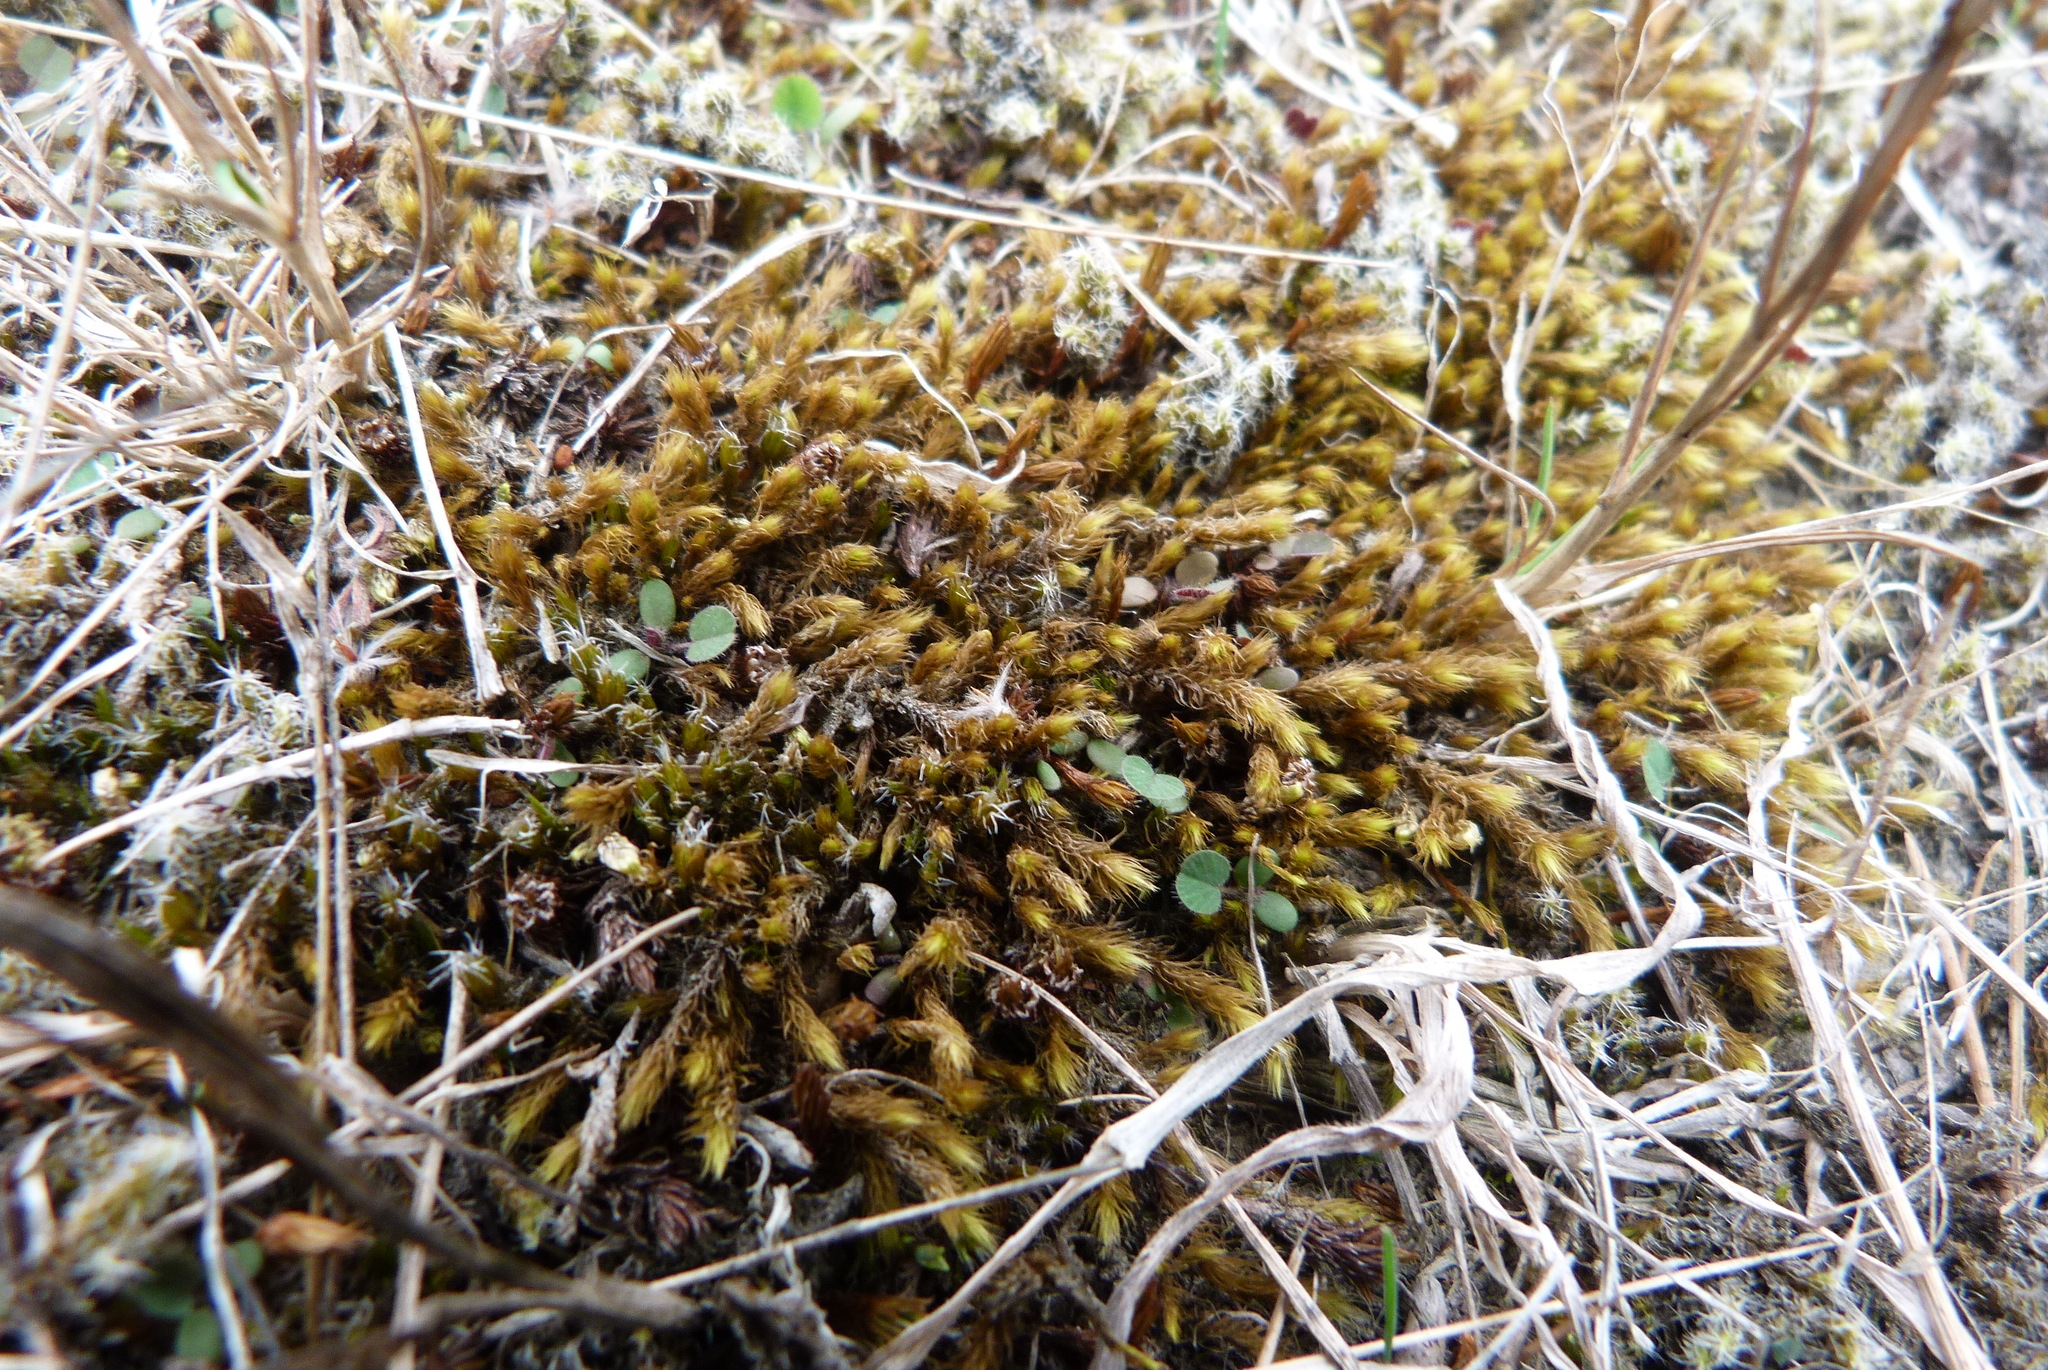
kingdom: Plantae
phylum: Bryophyta
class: Bryopsida
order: Bartramiales
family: Bartramiaceae
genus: Breutelia
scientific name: Breutelia affinis
